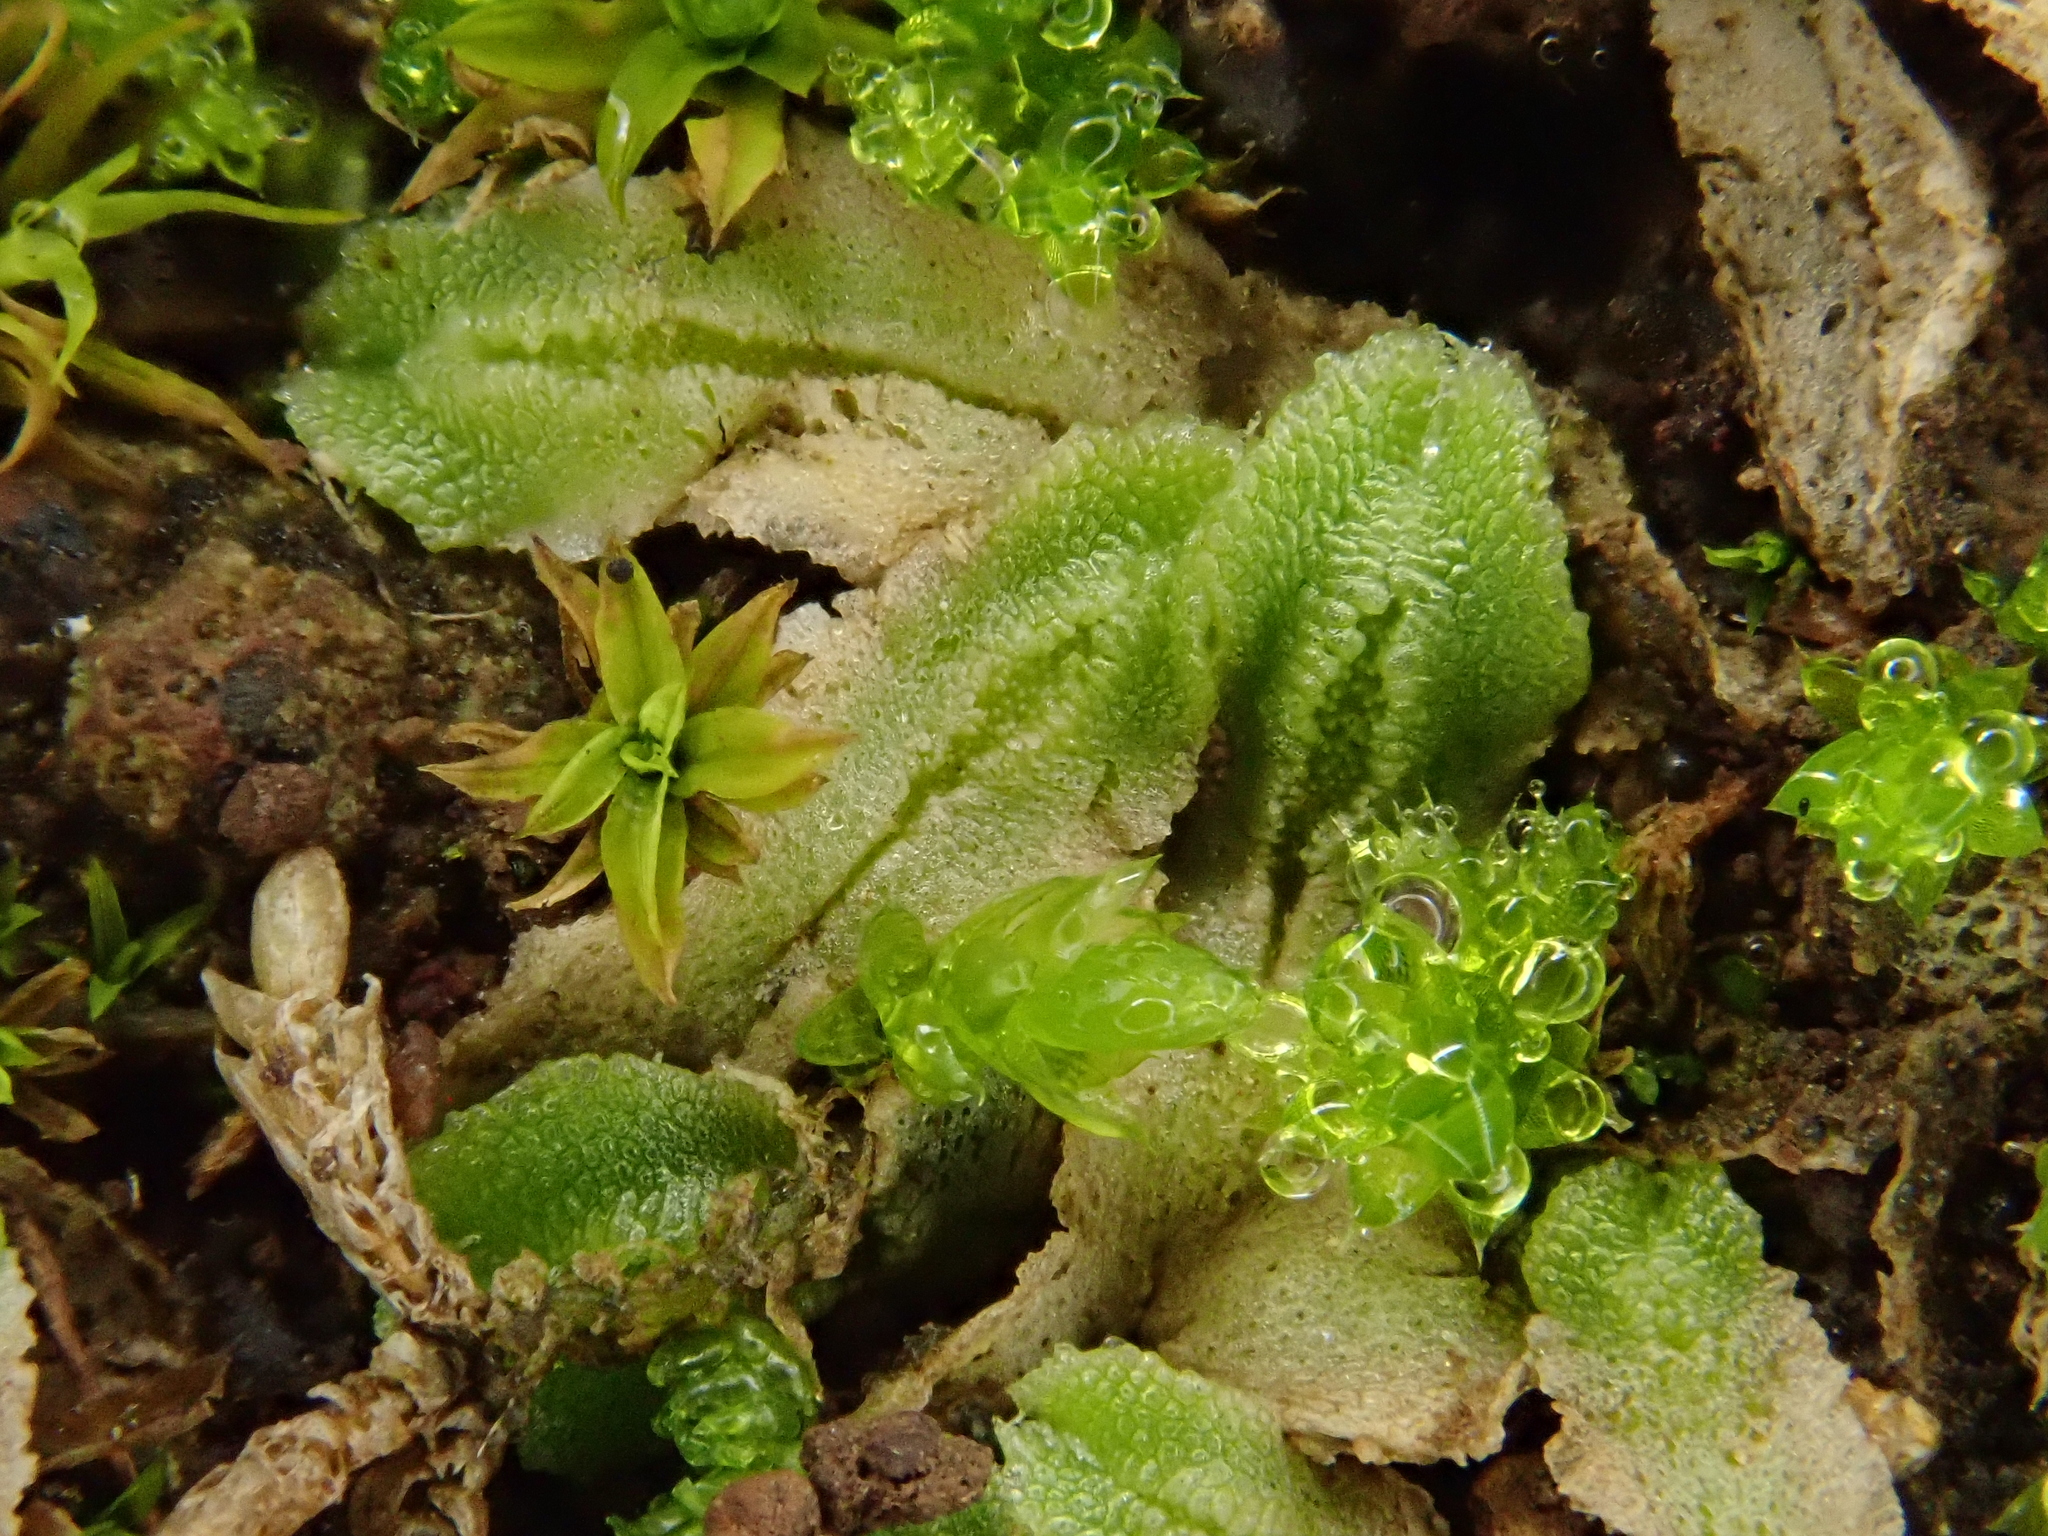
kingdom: Plantae
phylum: Marchantiophyta
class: Marchantiopsida
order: Marchantiales
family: Corsiniaceae
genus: Corsinia
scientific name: Corsinia coriandrina
